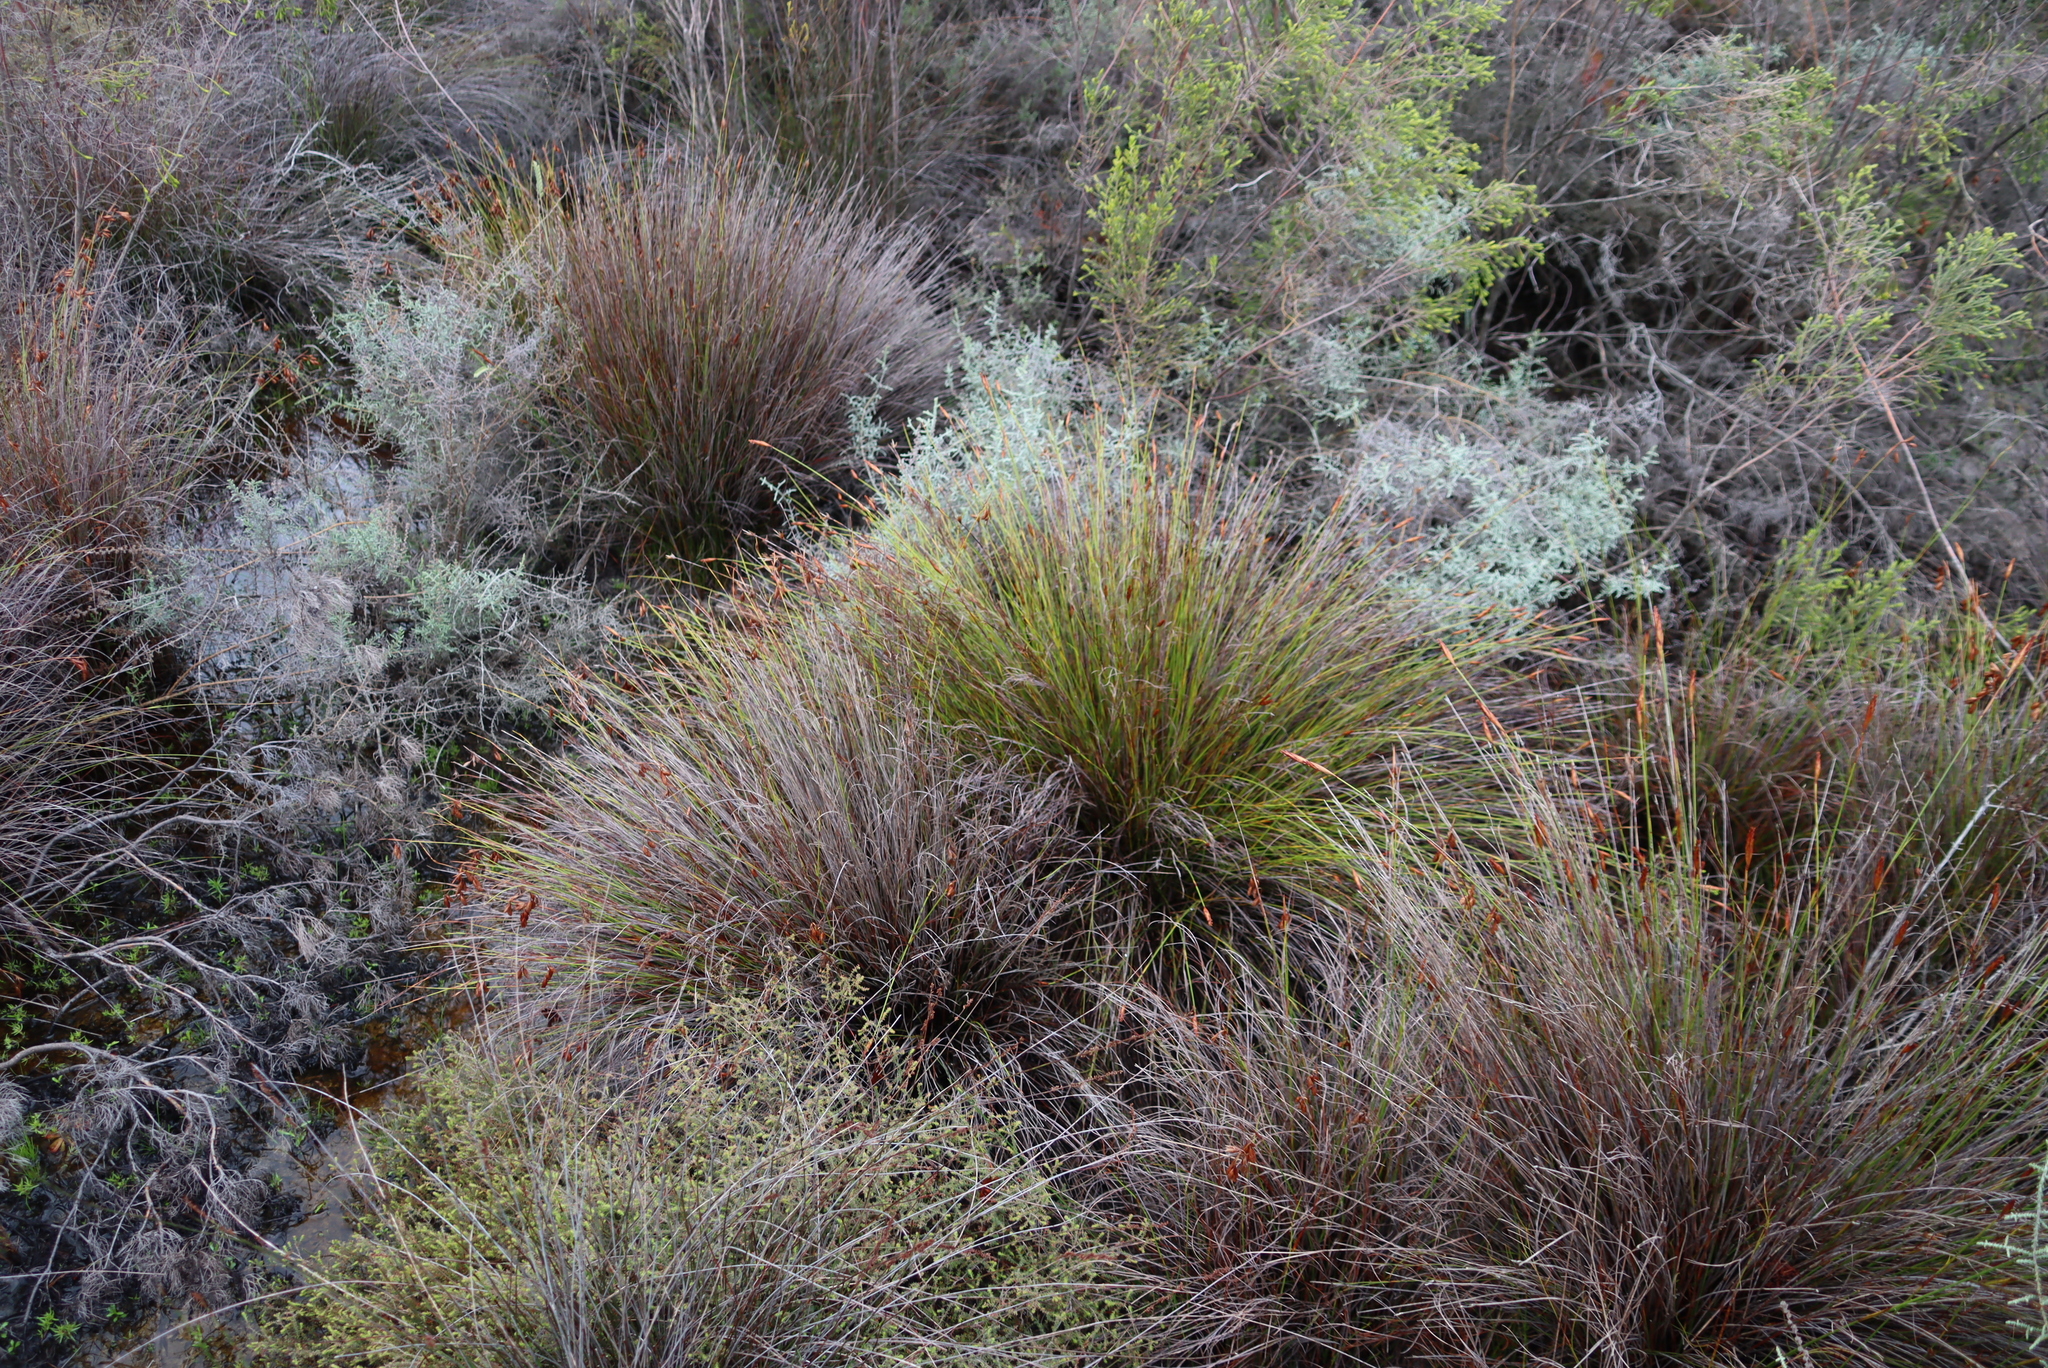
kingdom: Plantae
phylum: Tracheophyta
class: Magnoliopsida
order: Asterales
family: Asteraceae
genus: Seriphium
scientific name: Seriphium plumosum
